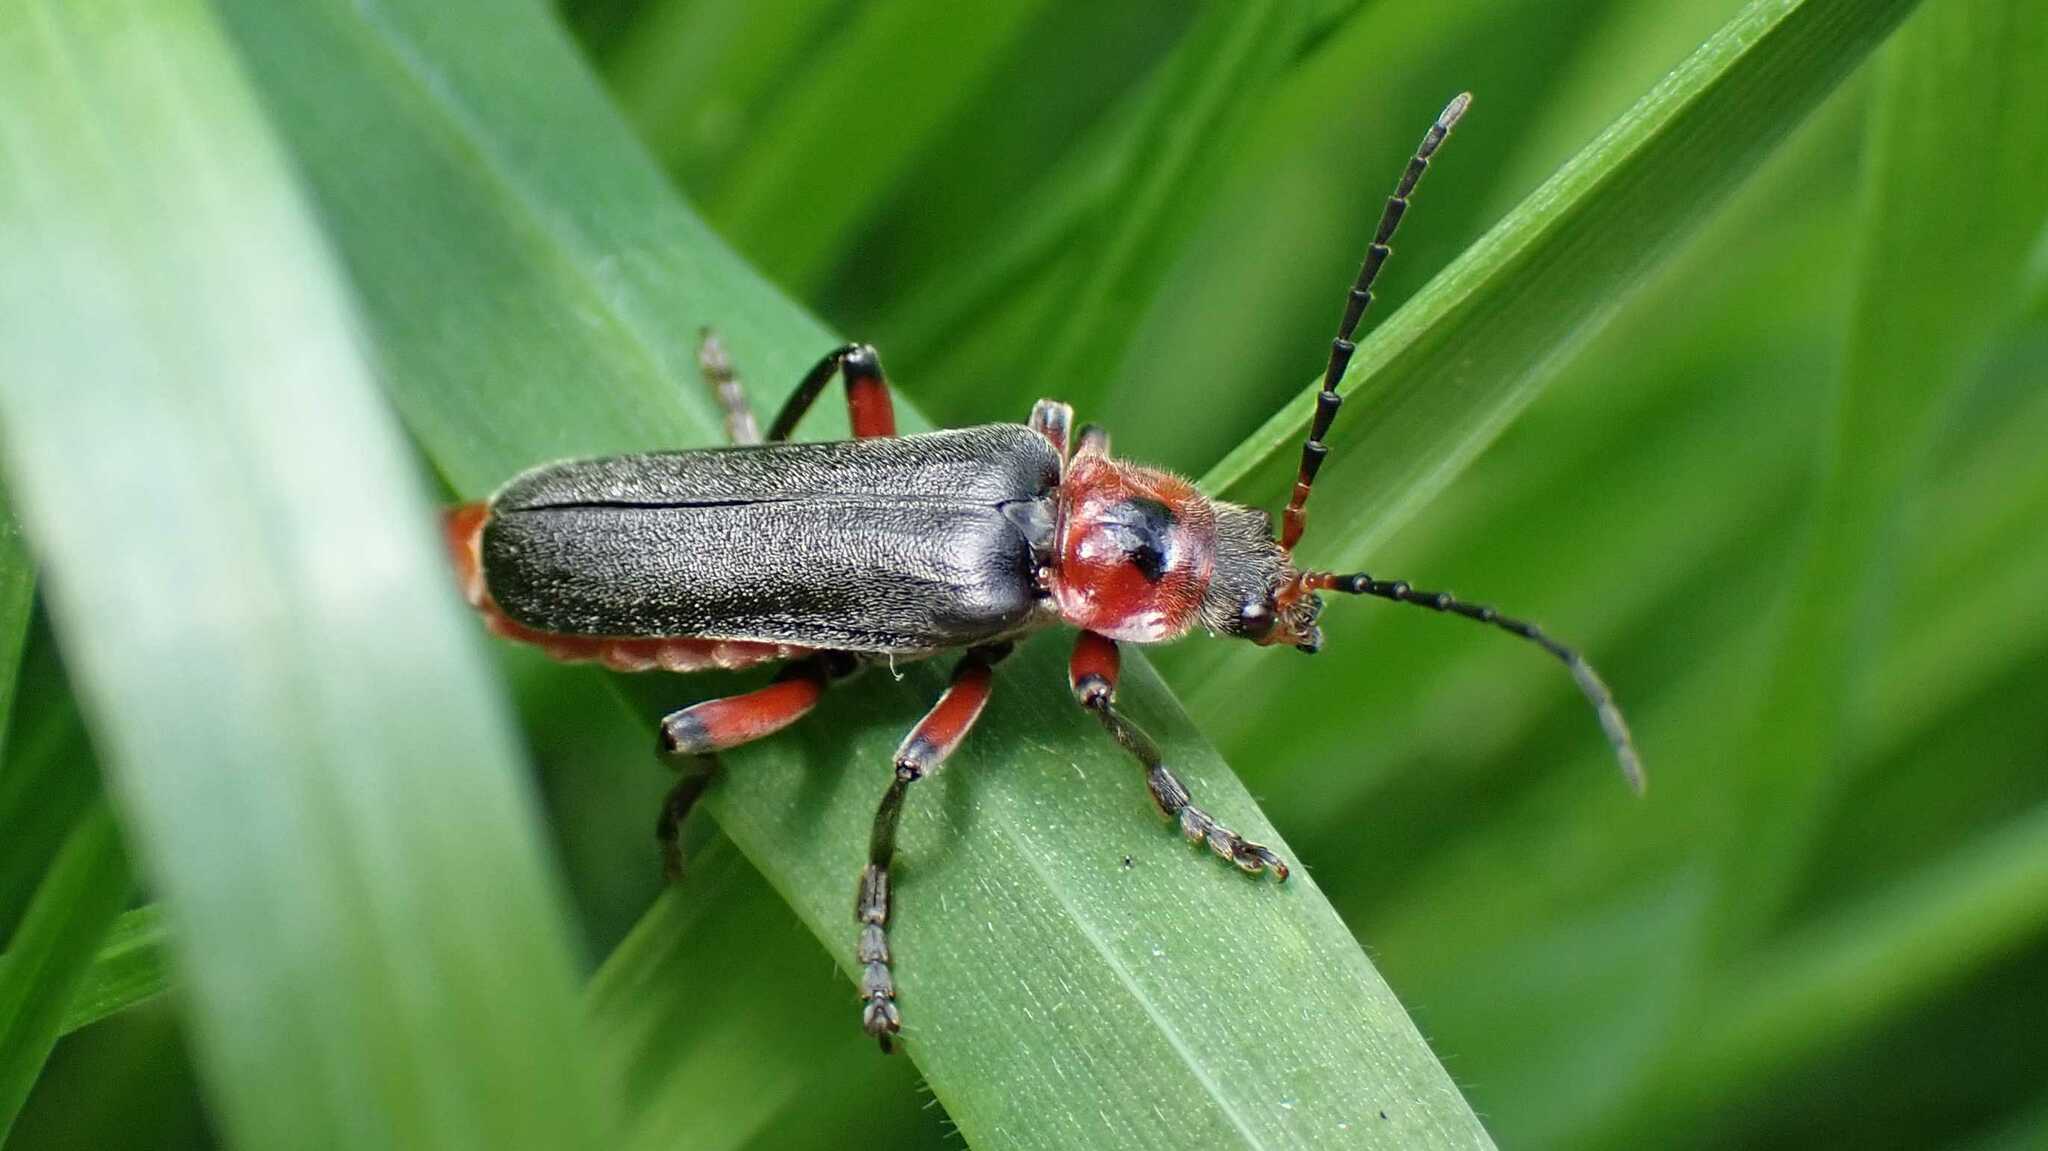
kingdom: Animalia
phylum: Arthropoda
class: Insecta
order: Coleoptera
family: Cantharidae
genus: Cantharis
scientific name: Cantharis rustica
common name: Soldier beetle
